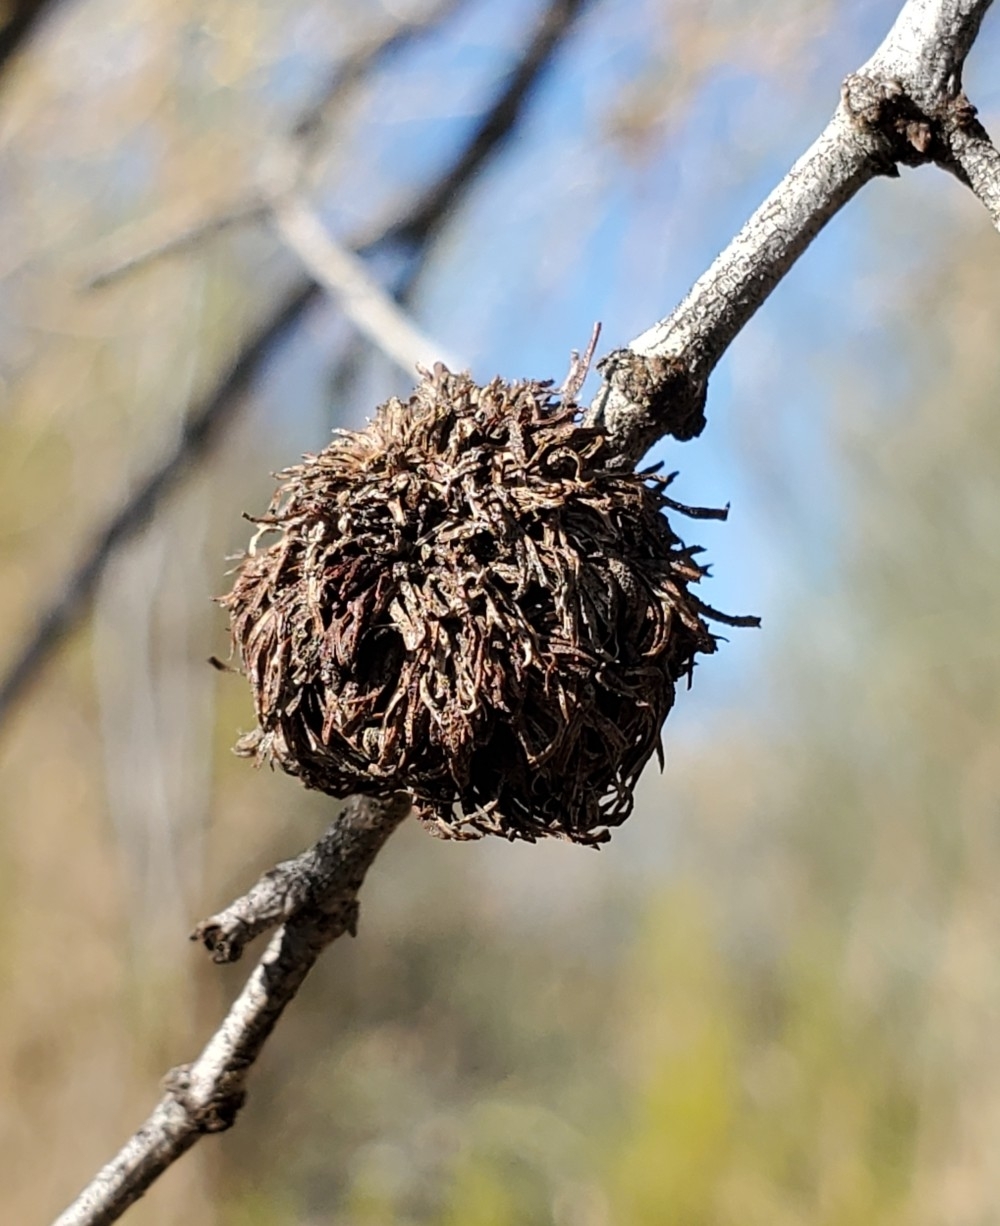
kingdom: Animalia
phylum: Arthropoda
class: Insecta
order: Diptera
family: Cecidomyiidae
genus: Asphondylia
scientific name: Asphondylia auripila
